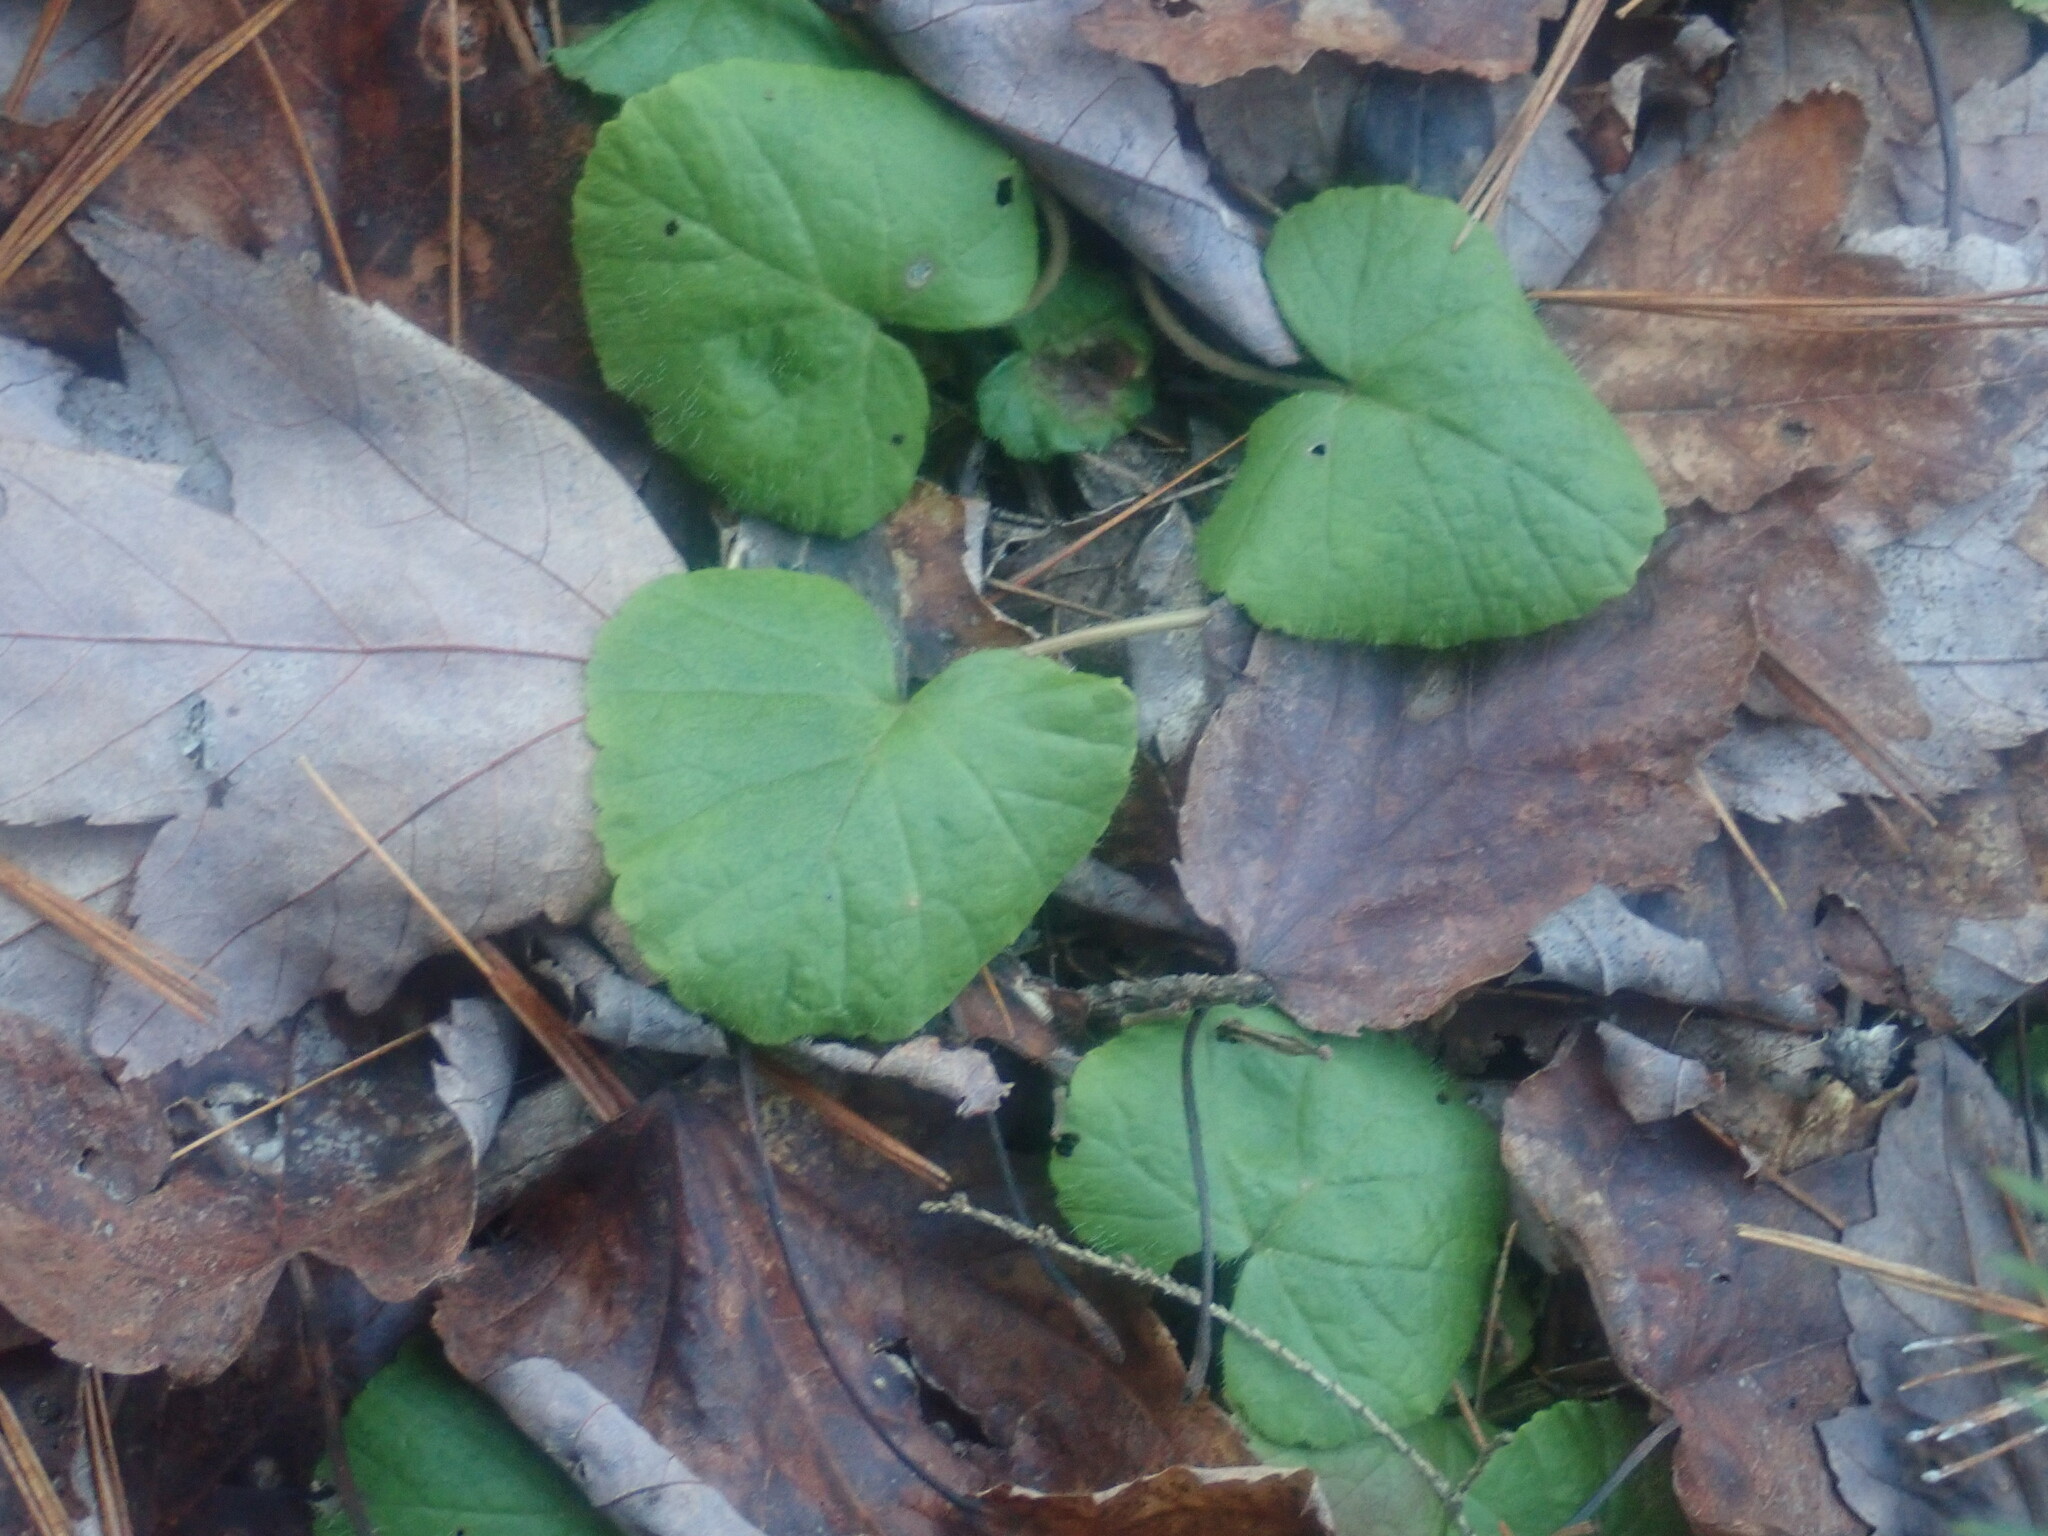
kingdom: Plantae
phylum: Tracheophyta
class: Magnoliopsida
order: Rosales
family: Rosaceae
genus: Dalibarda
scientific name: Dalibarda repens
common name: Dewdrop
